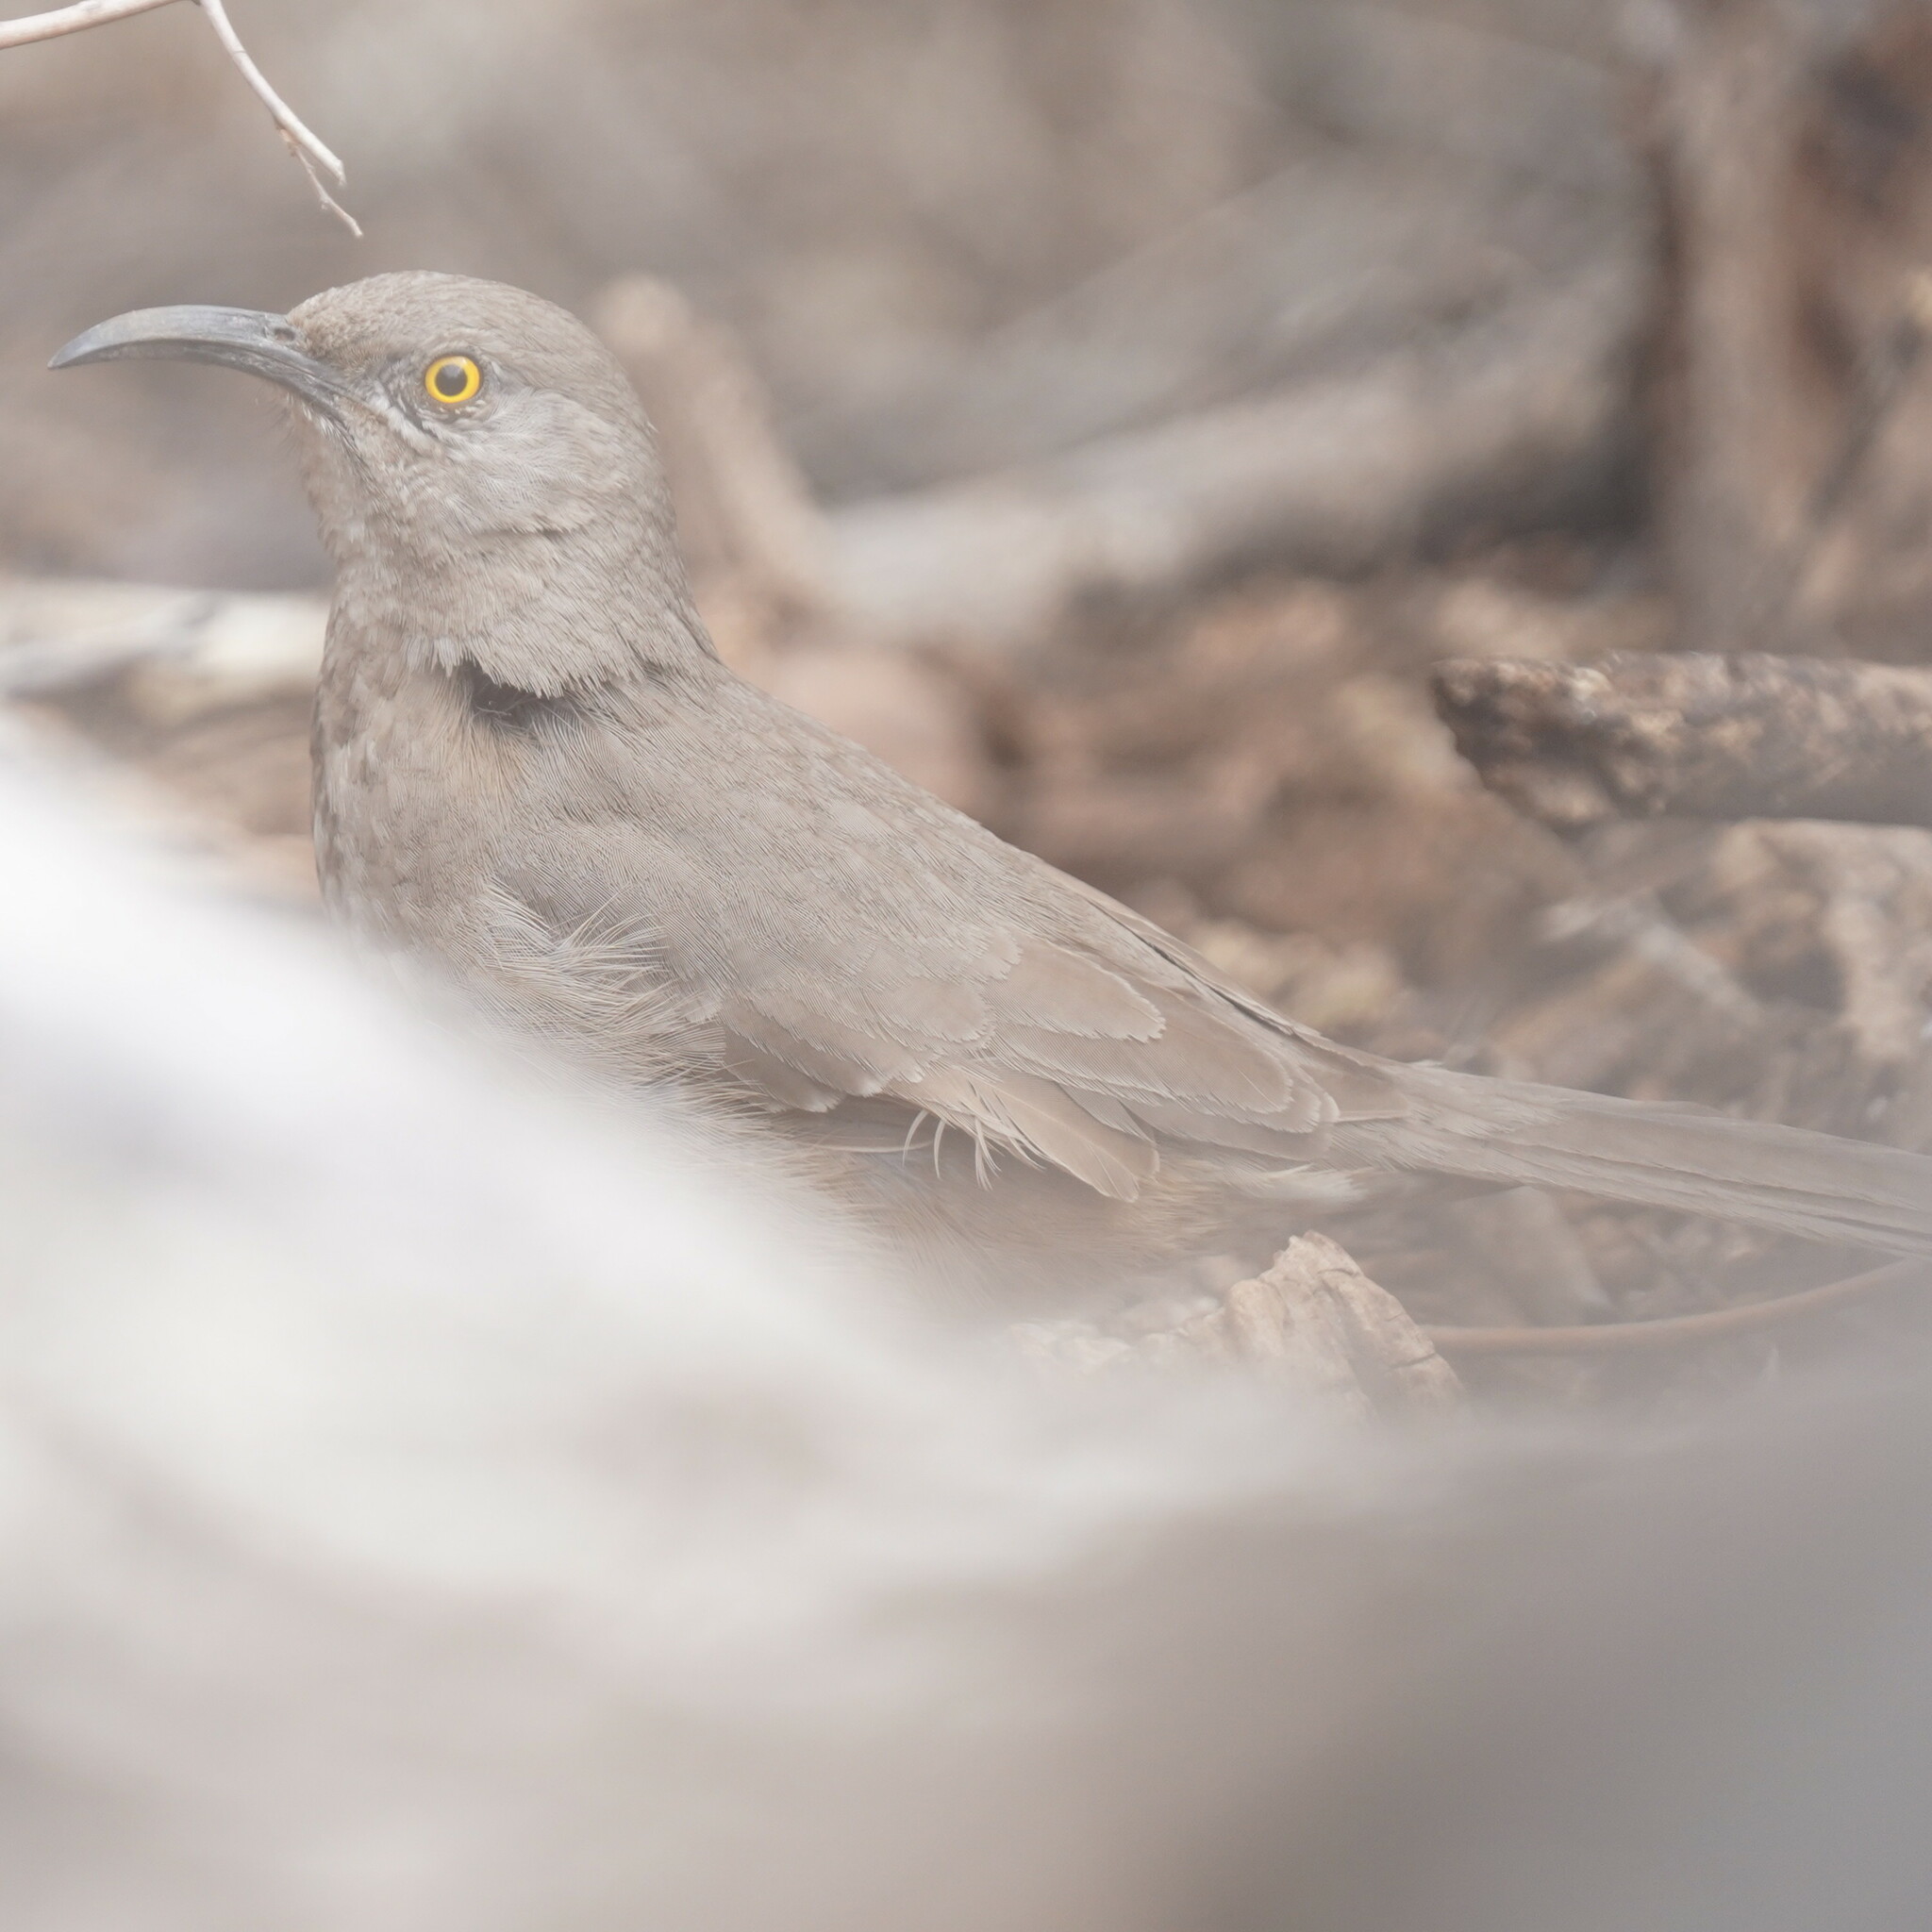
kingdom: Animalia
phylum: Chordata
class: Aves
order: Passeriformes
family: Mimidae
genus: Toxostoma
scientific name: Toxostoma curvirostre
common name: Curve-billed thrasher
